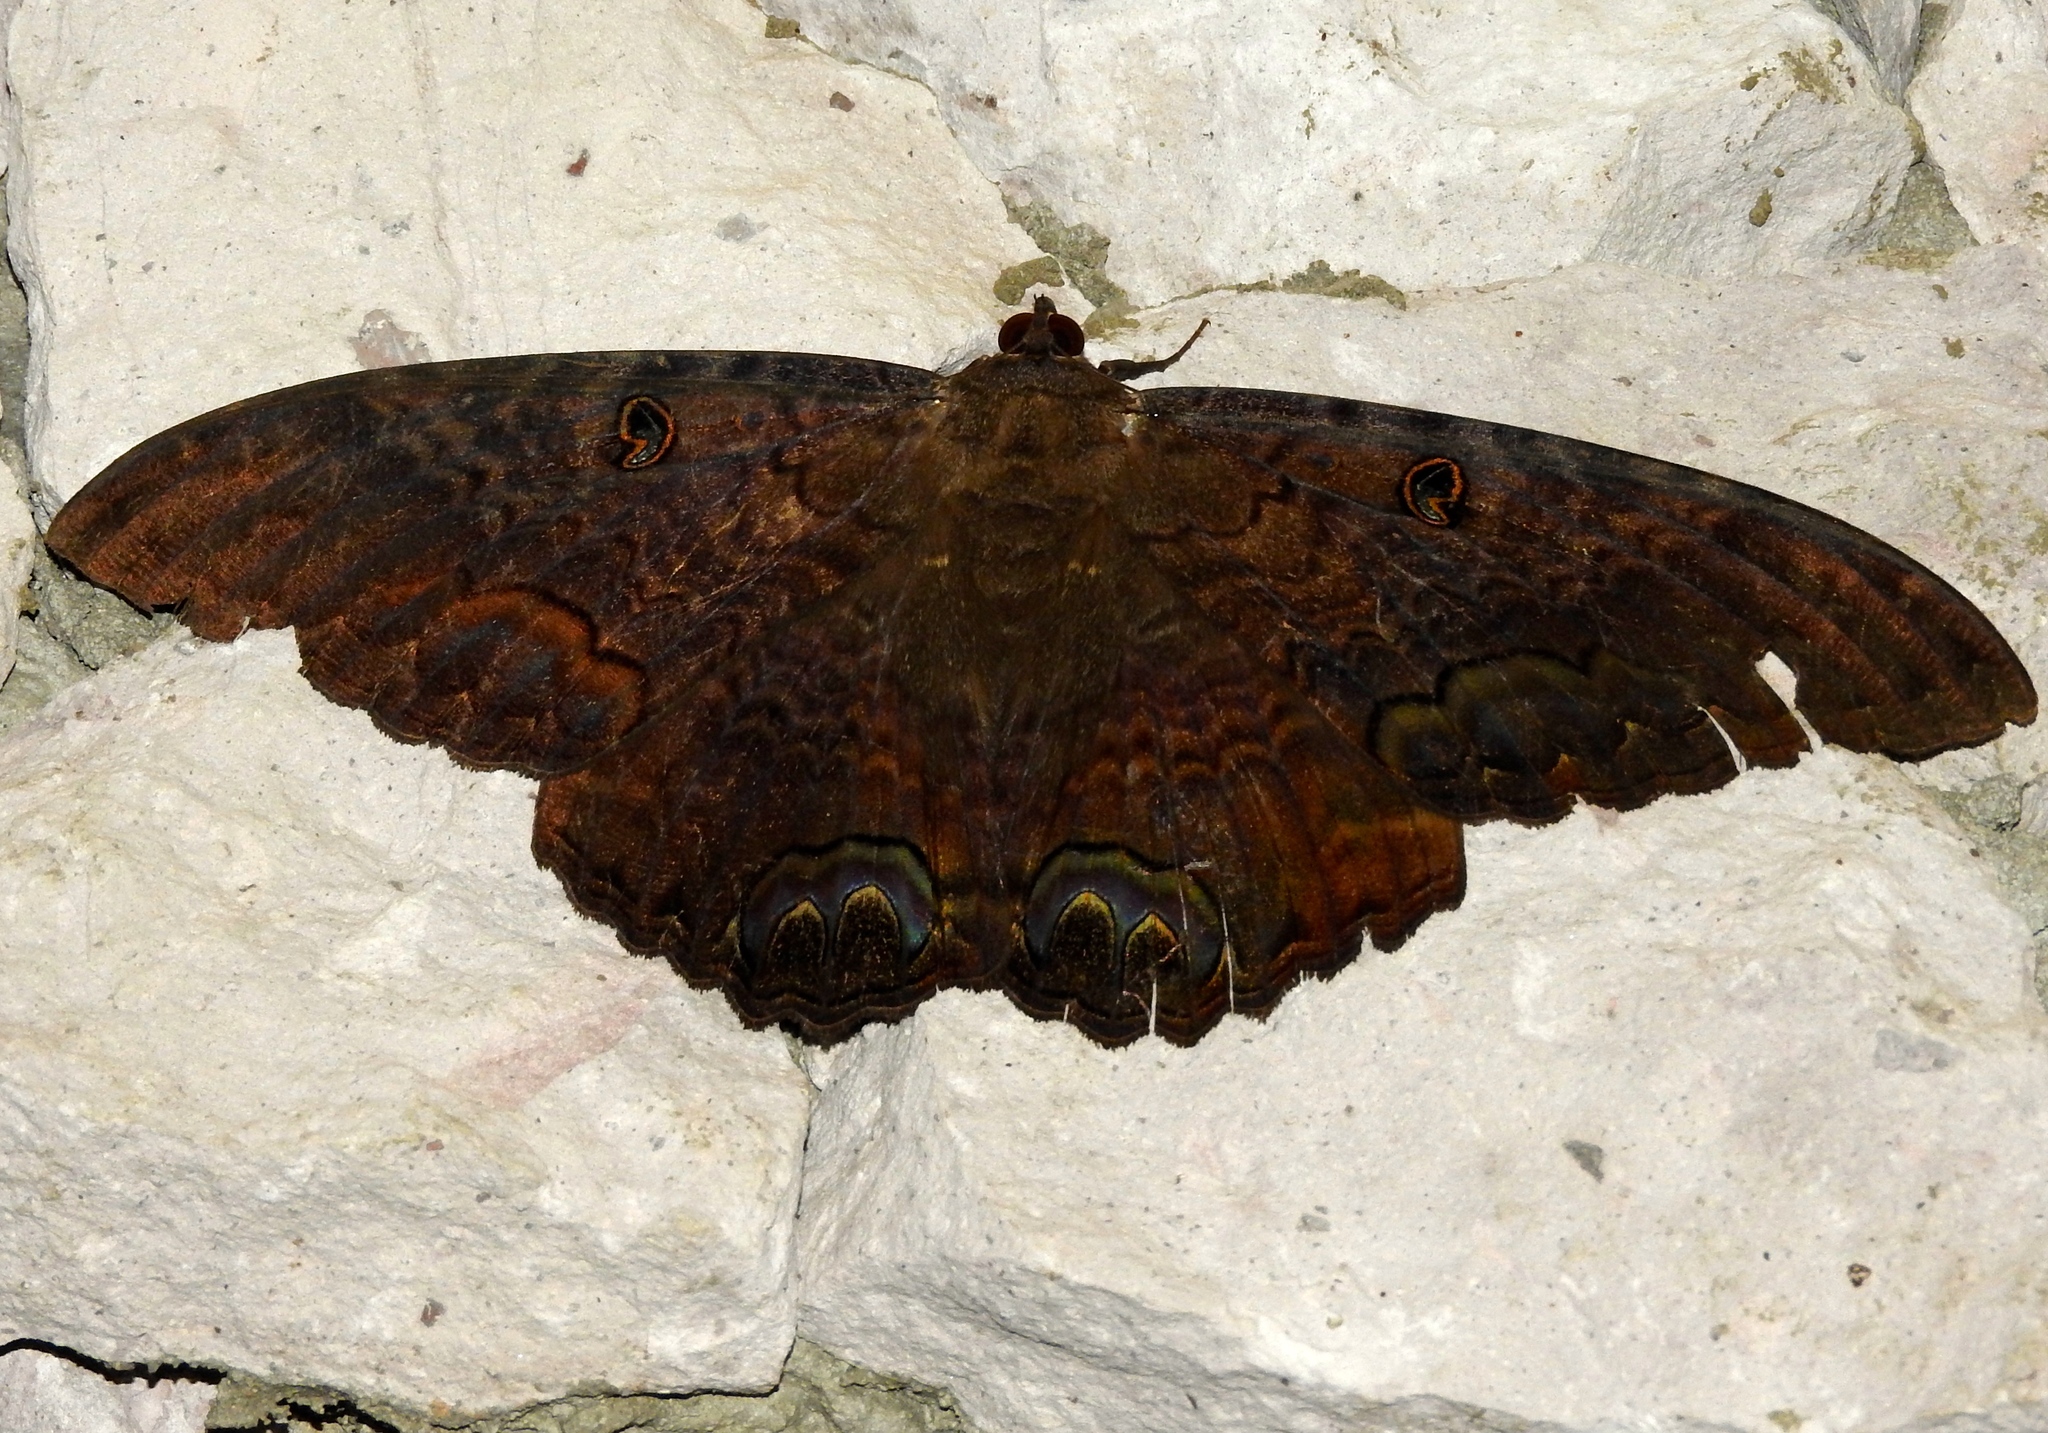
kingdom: Animalia
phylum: Arthropoda
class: Insecta
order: Lepidoptera
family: Erebidae
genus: Ascalapha
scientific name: Ascalapha odorata
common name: Black witch
